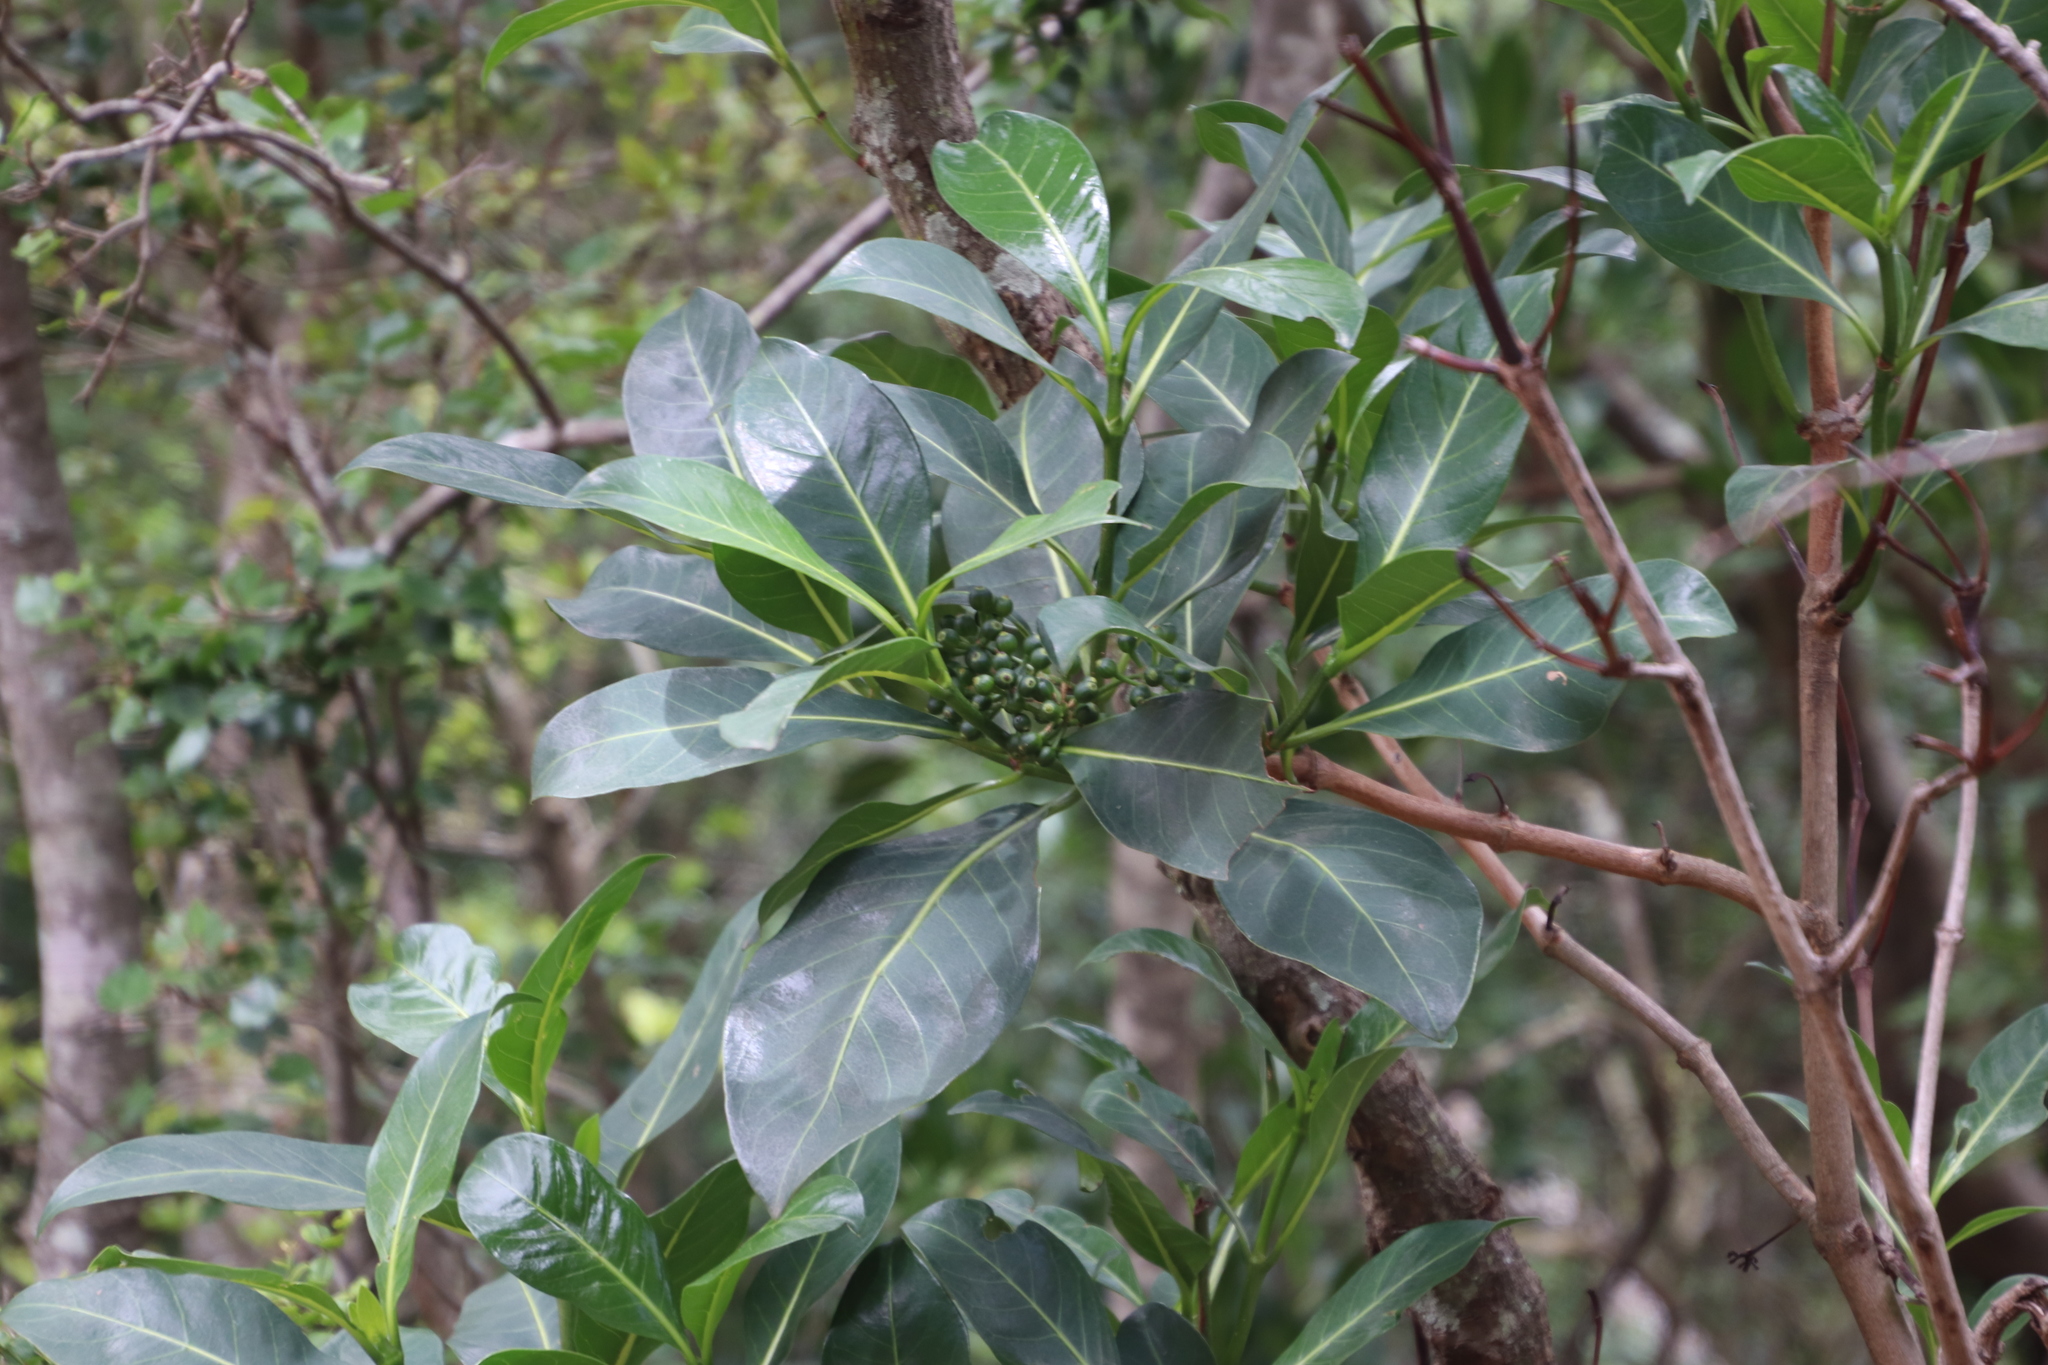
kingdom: Plantae
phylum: Tracheophyta
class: Magnoliopsida
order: Gentianales
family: Rubiaceae
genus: Psychotria
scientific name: Psychotria capensis
